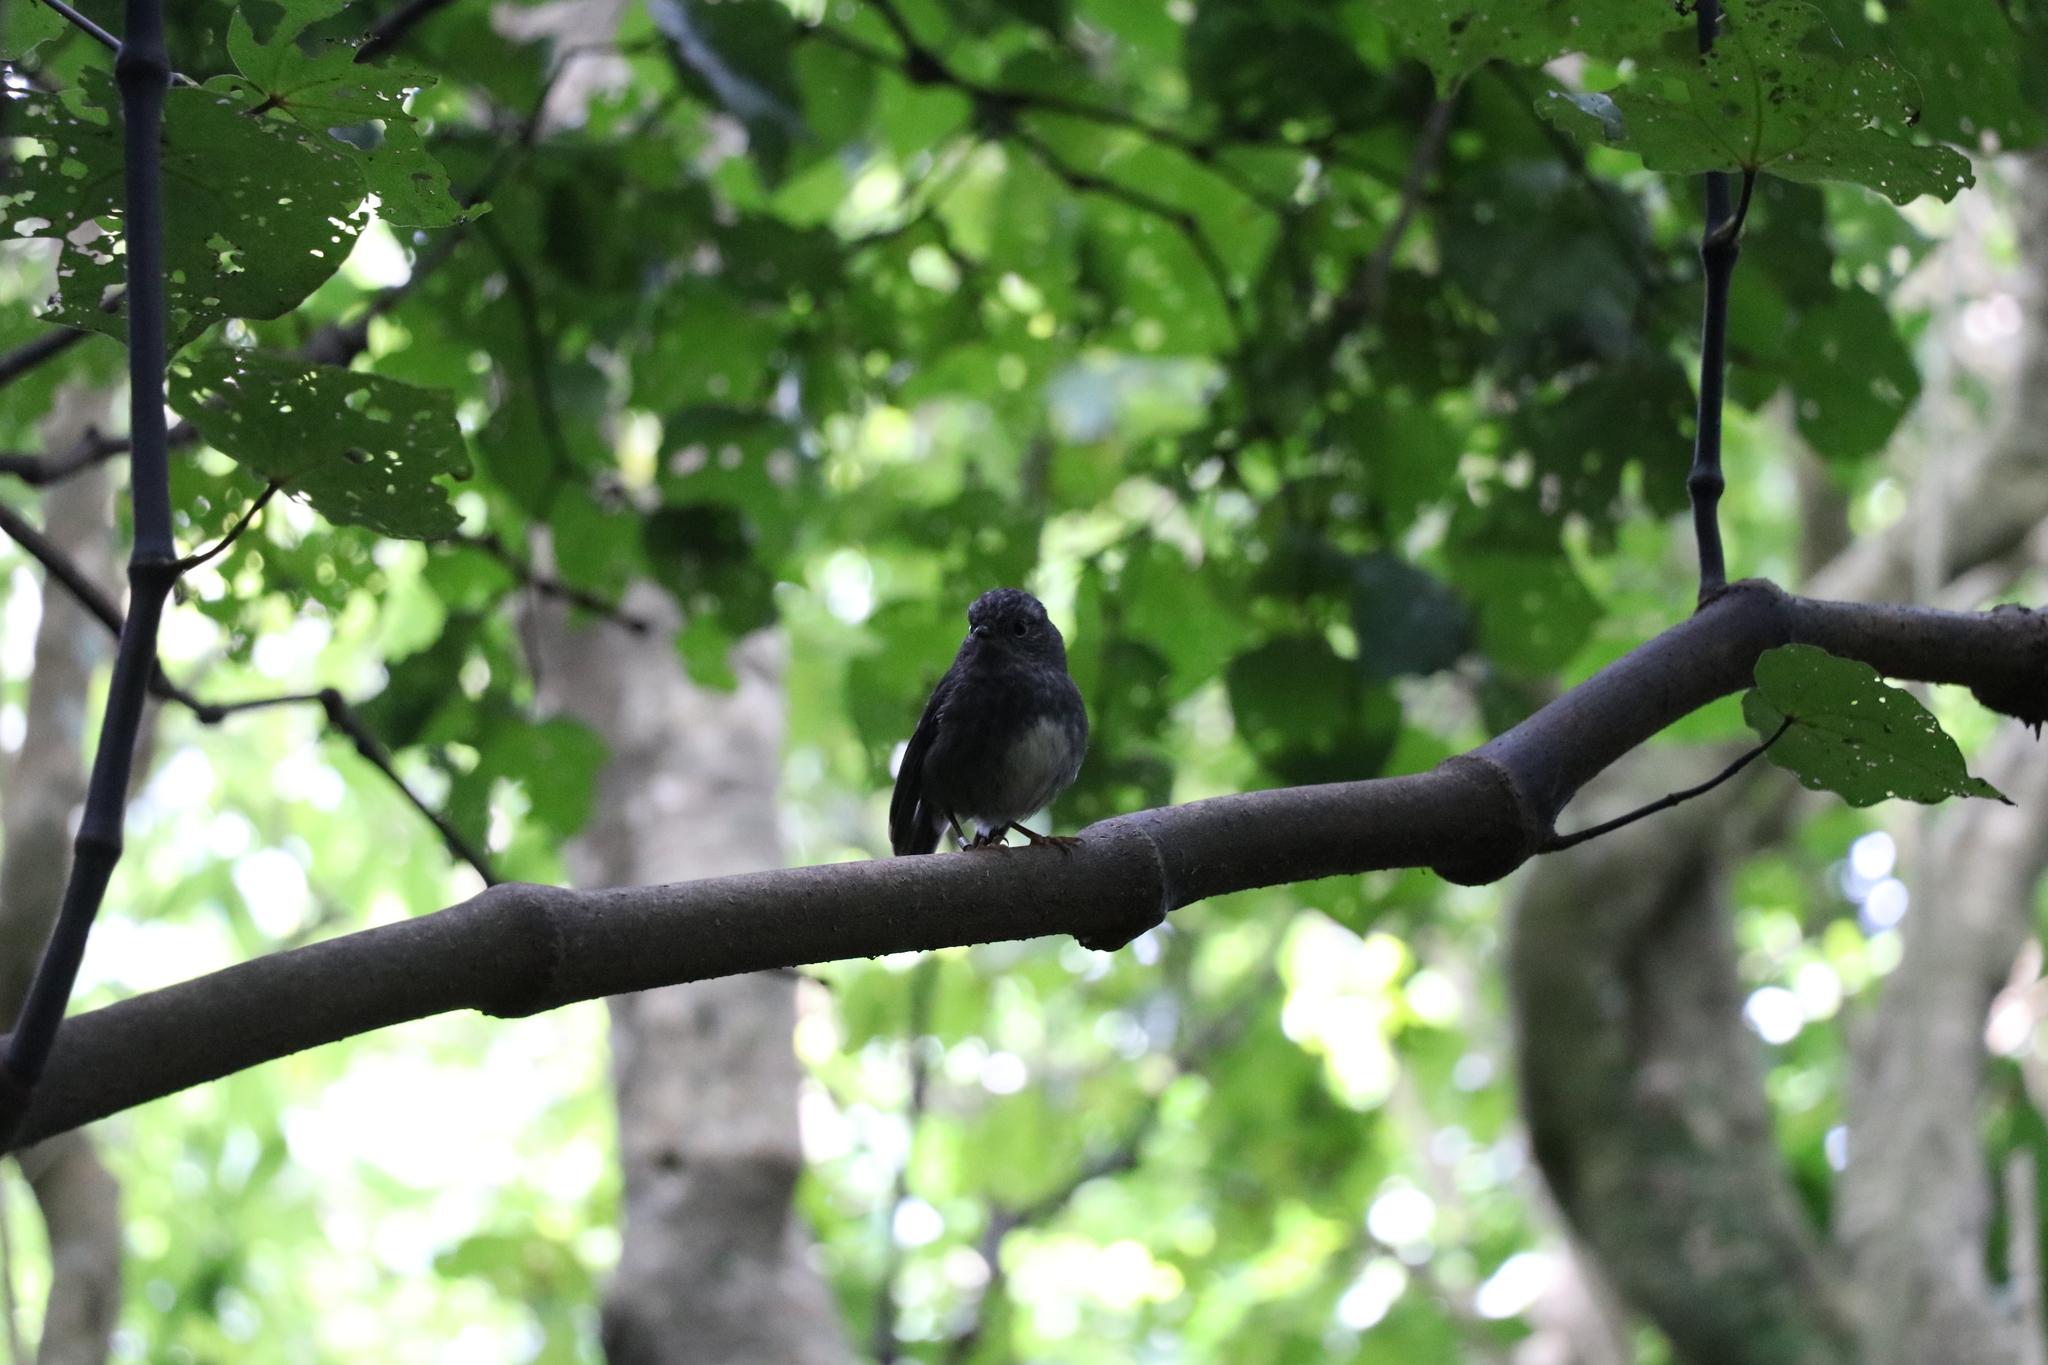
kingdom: Animalia
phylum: Chordata
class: Aves
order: Passeriformes
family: Petroicidae
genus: Petroica
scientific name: Petroica australis
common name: New zealand robin
